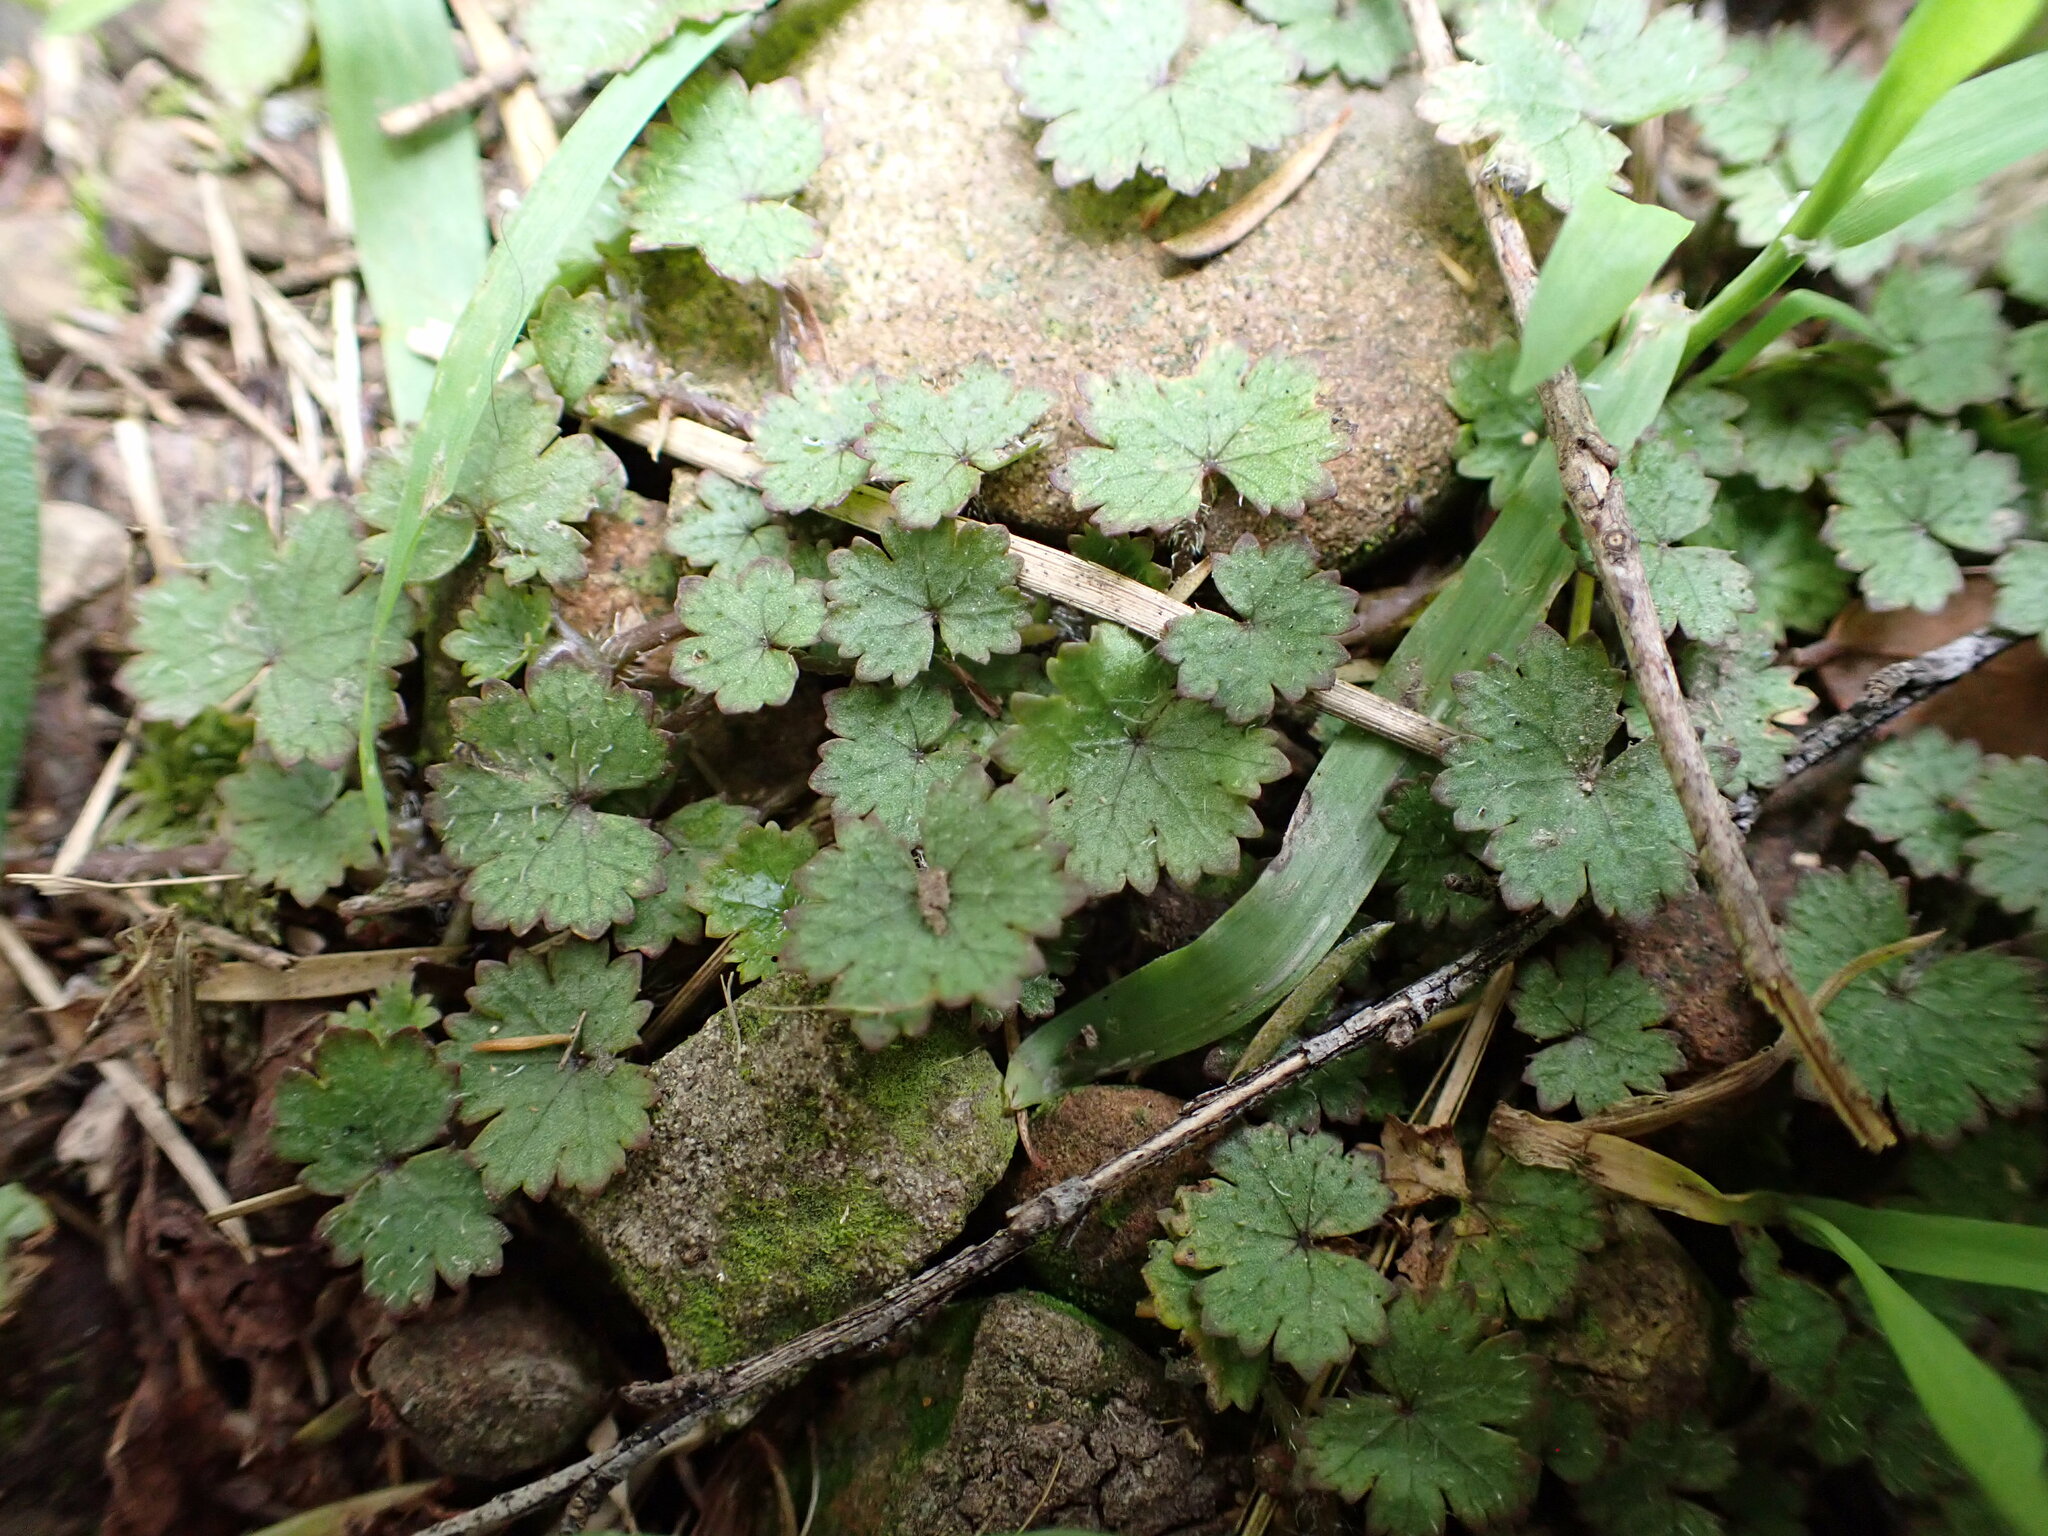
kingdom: Plantae
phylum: Tracheophyta
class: Magnoliopsida
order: Apiales
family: Araliaceae
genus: Hydrocotyle
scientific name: Hydrocotyle moschata
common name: Hairy pennywort
